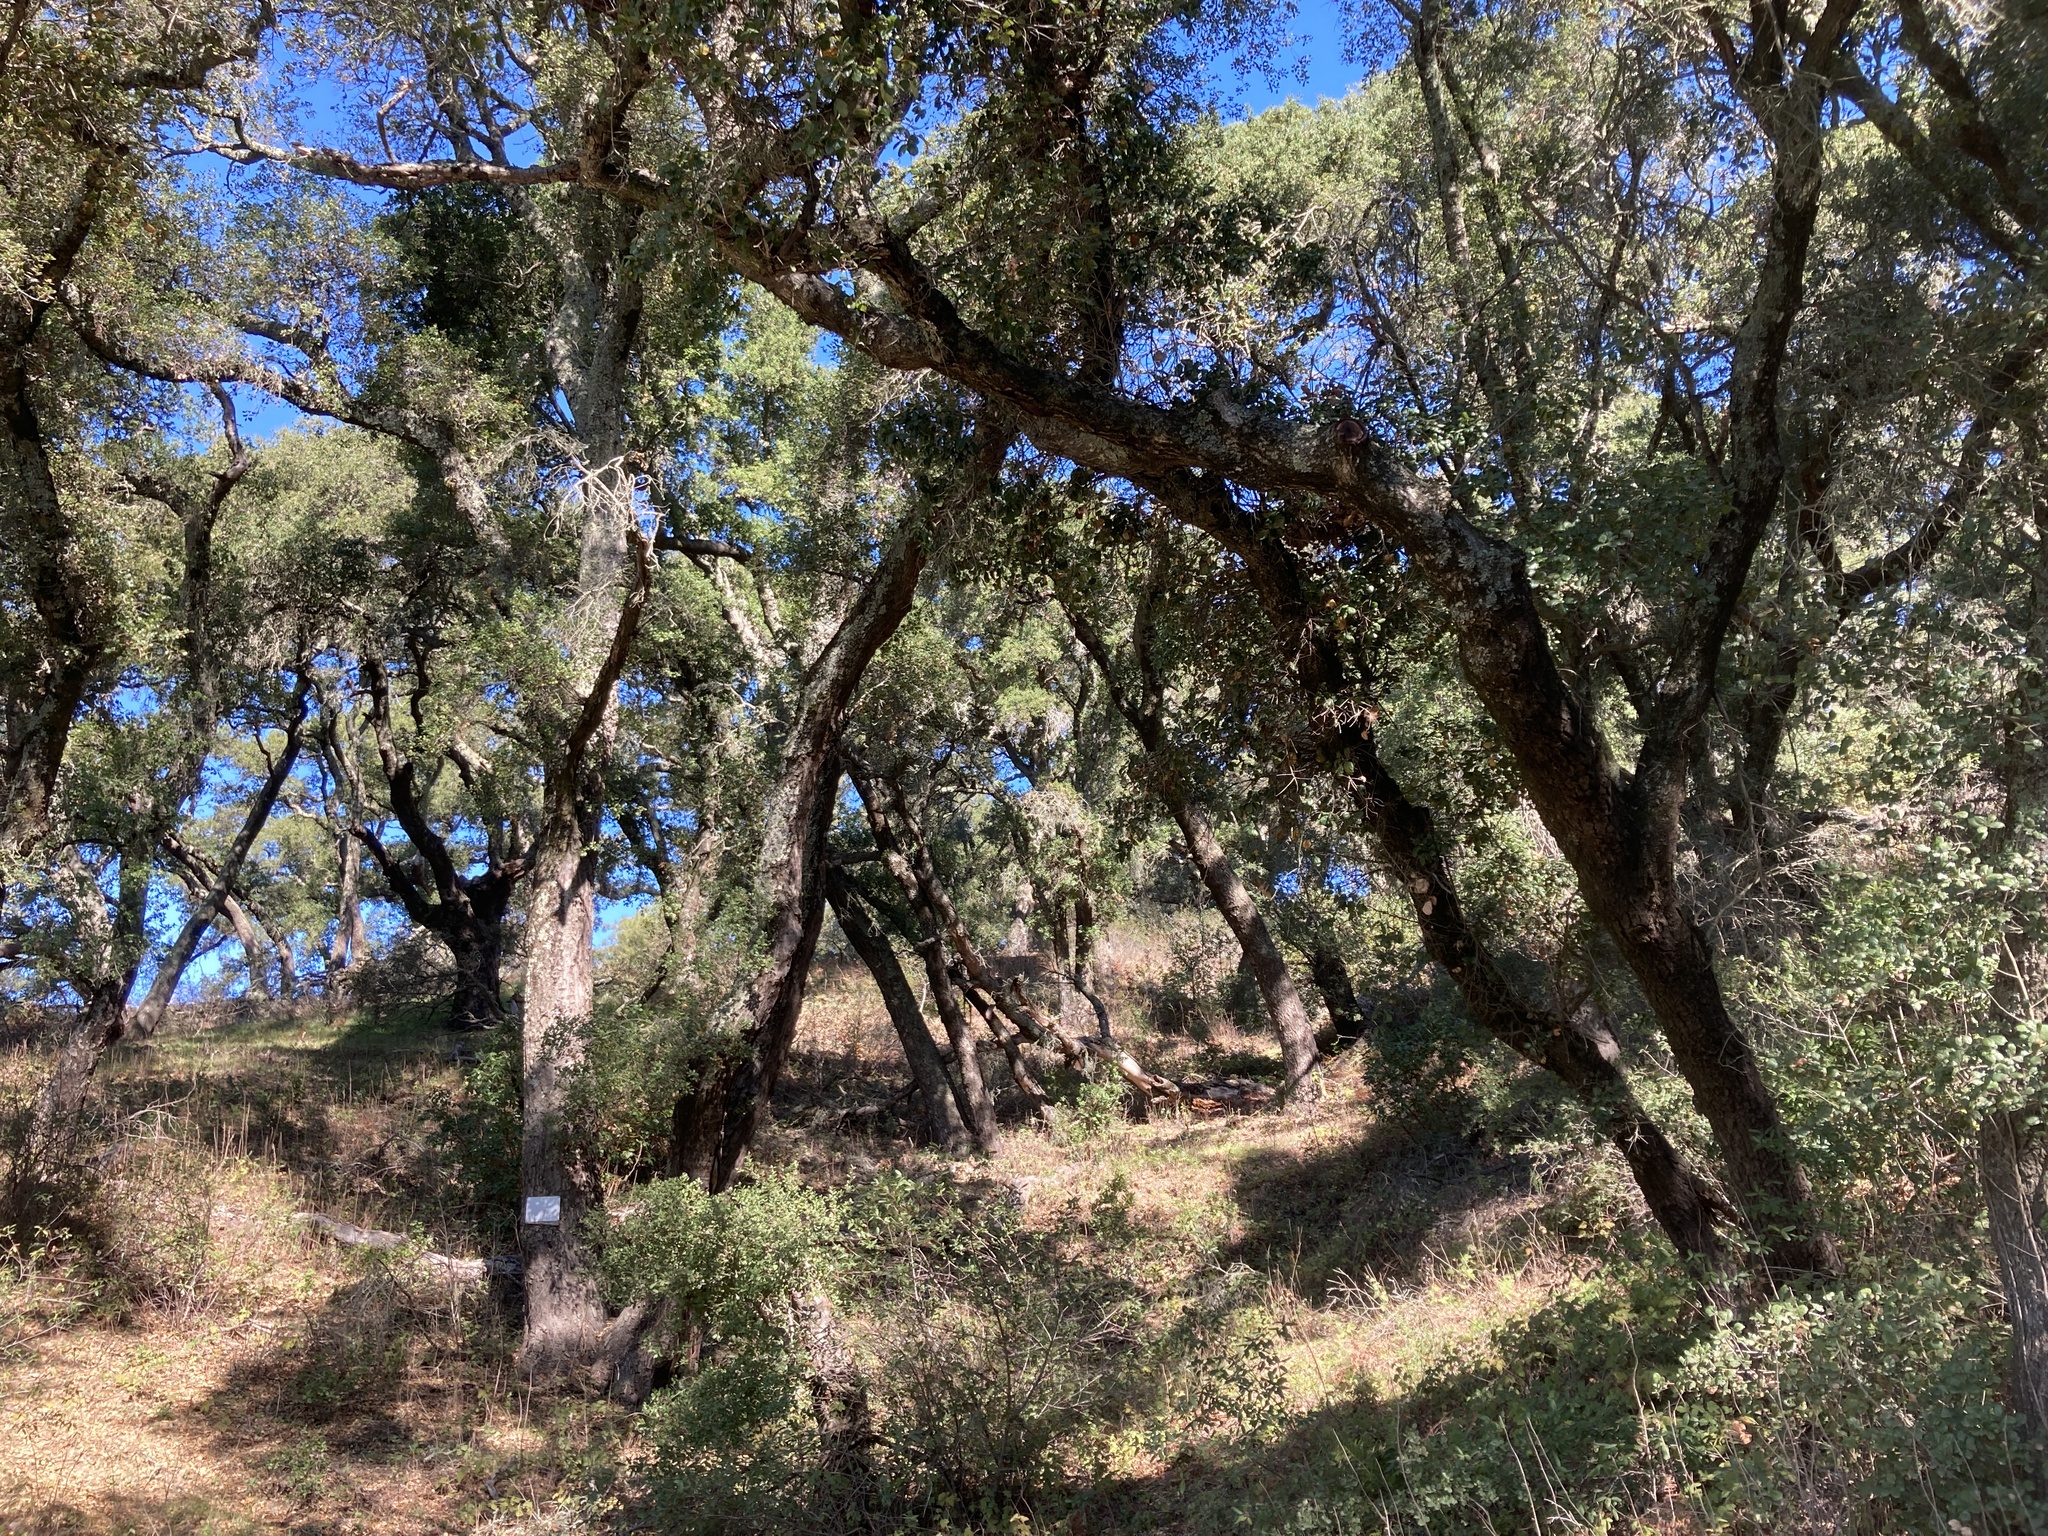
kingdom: Plantae
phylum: Tracheophyta
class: Magnoliopsida
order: Fagales
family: Fagaceae
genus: Quercus
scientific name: Quercus agrifolia
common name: California live oak
